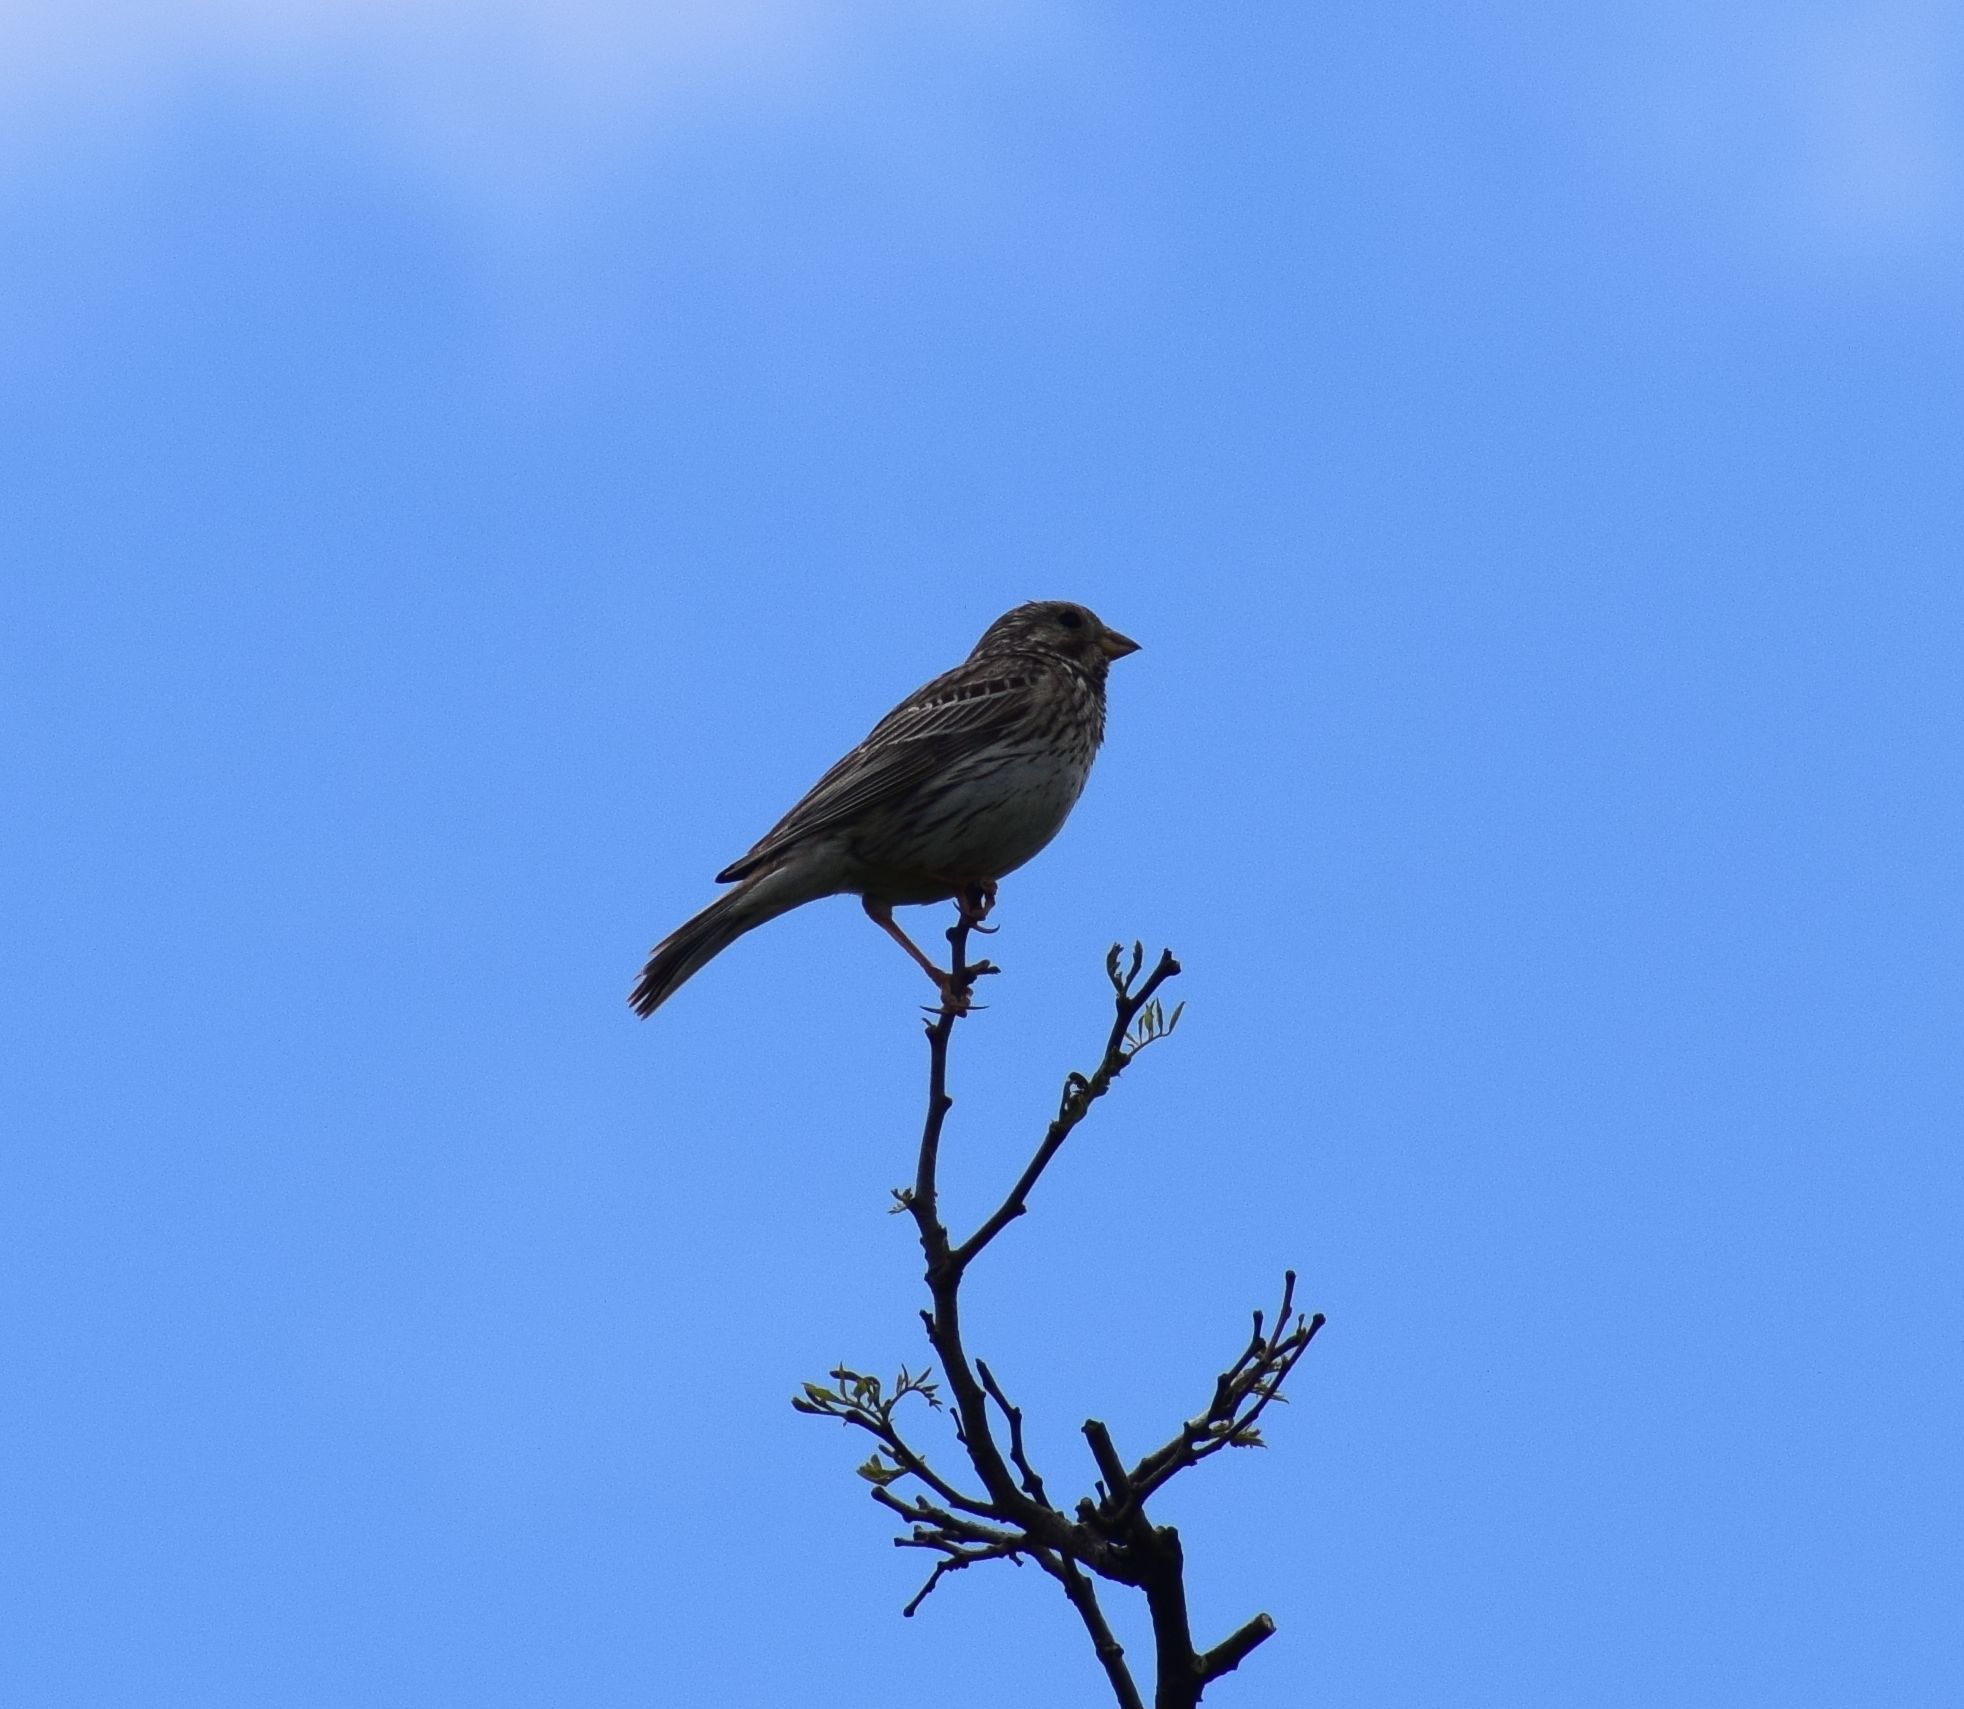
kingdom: Animalia
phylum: Chordata
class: Aves
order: Passeriformes
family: Emberizidae
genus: Emberiza
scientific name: Emberiza calandra
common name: Corn bunting
